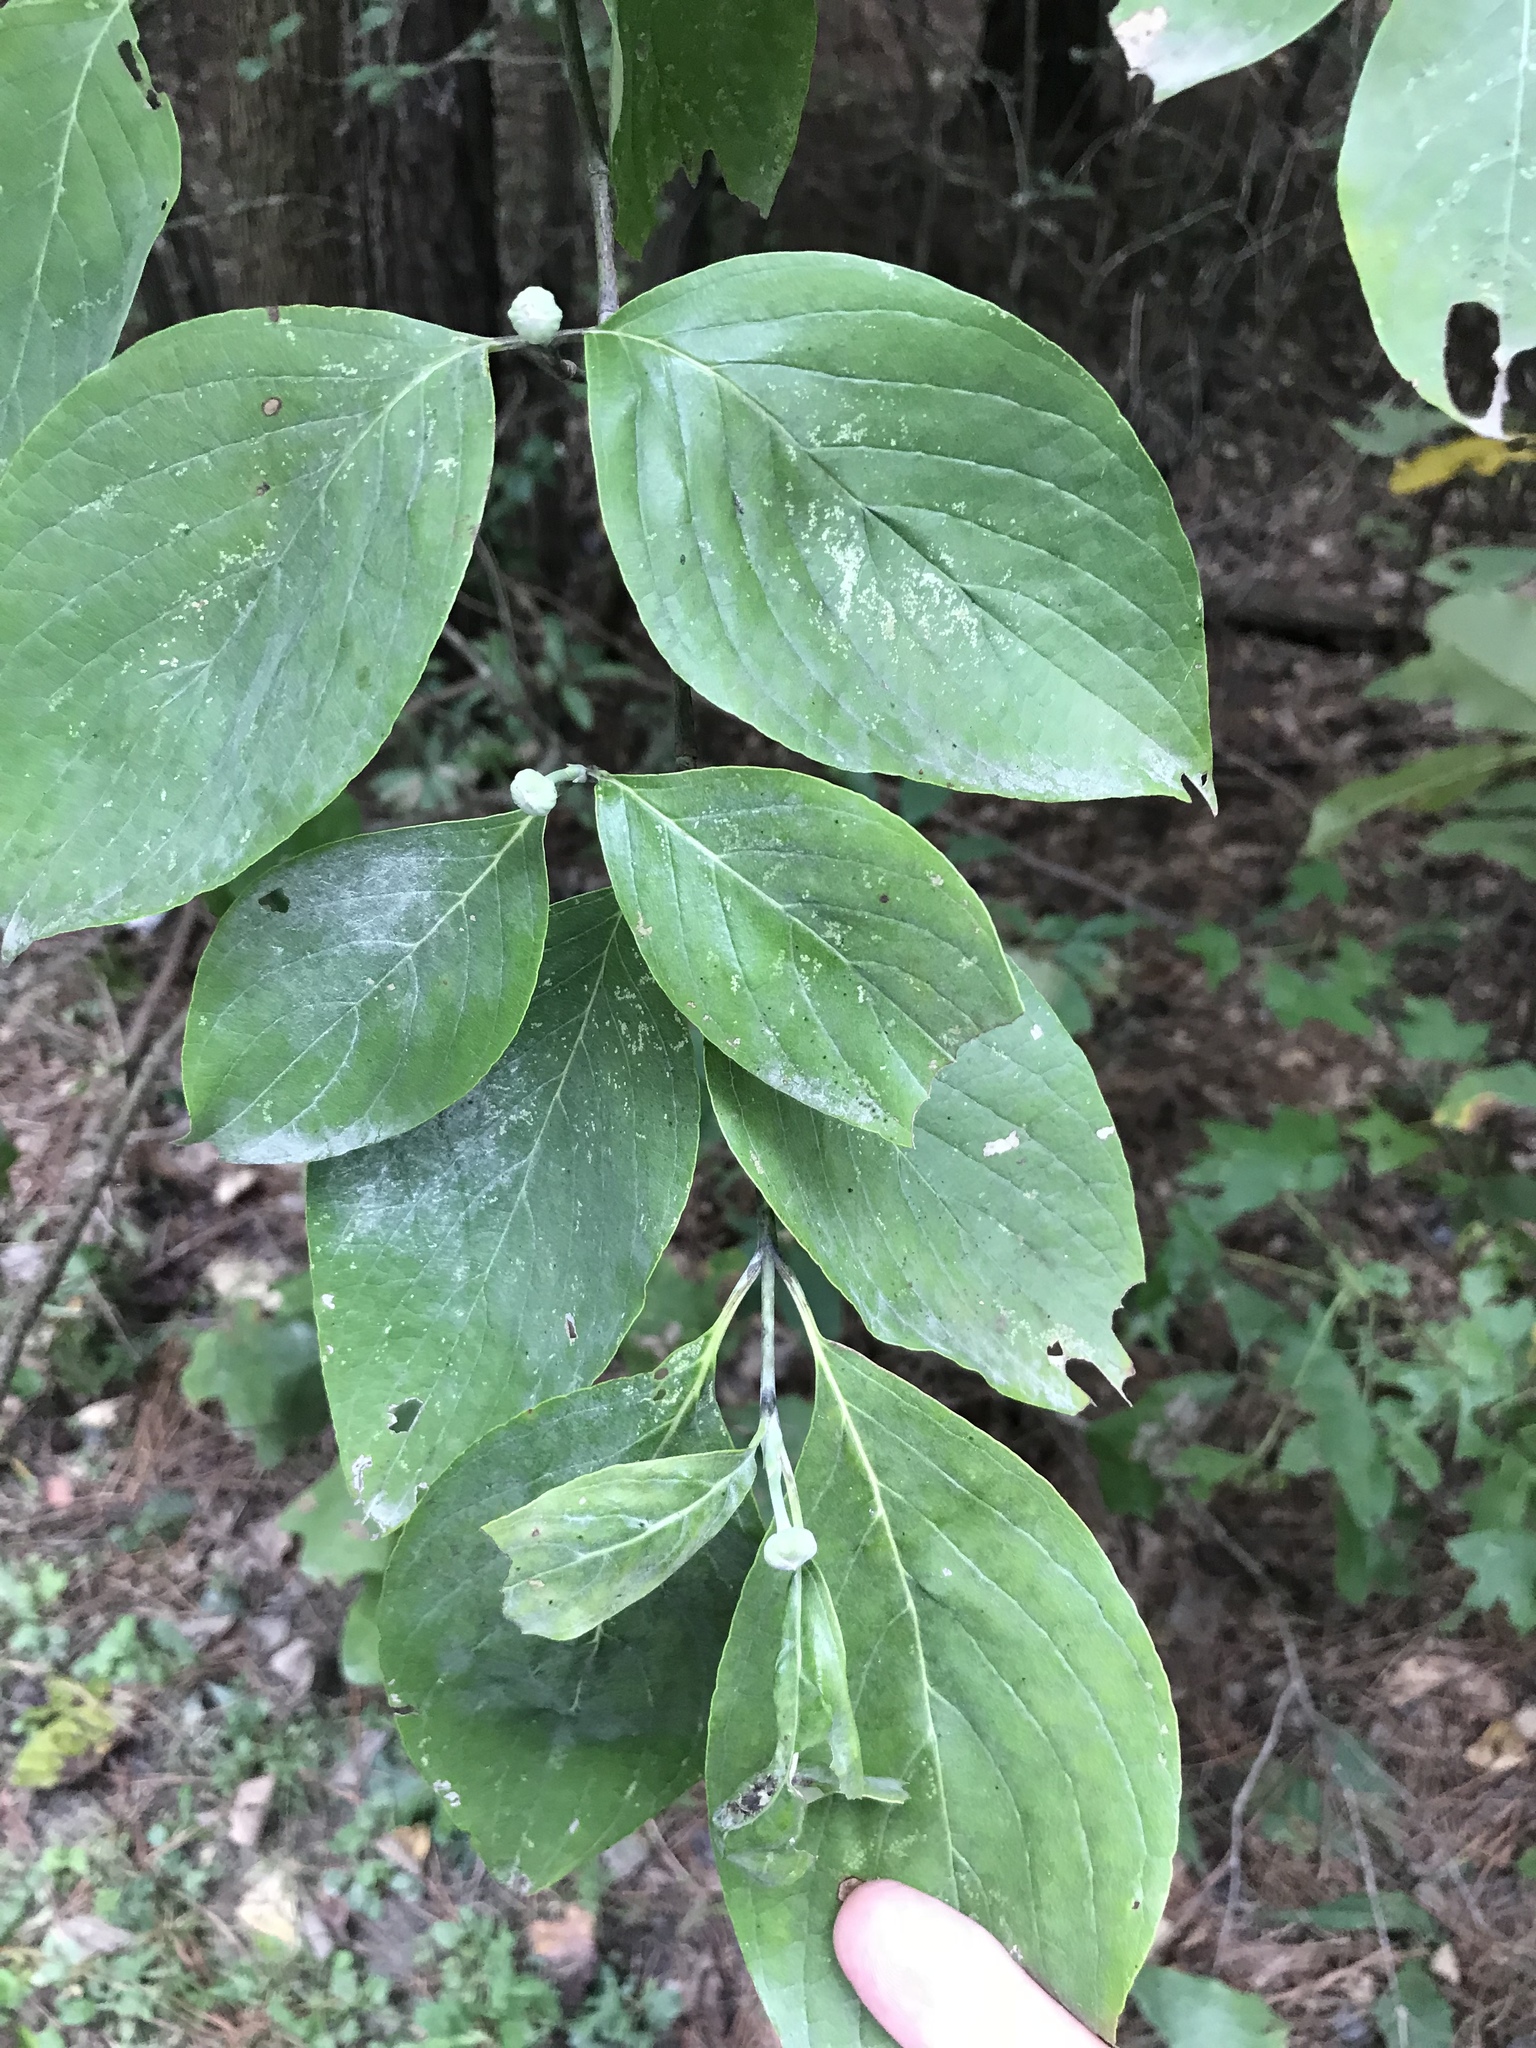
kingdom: Plantae
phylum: Tracheophyta
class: Magnoliopsida
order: Cornales
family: Cornaceae
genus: Cornus
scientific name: Cornus florida
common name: Flowering dogwood
